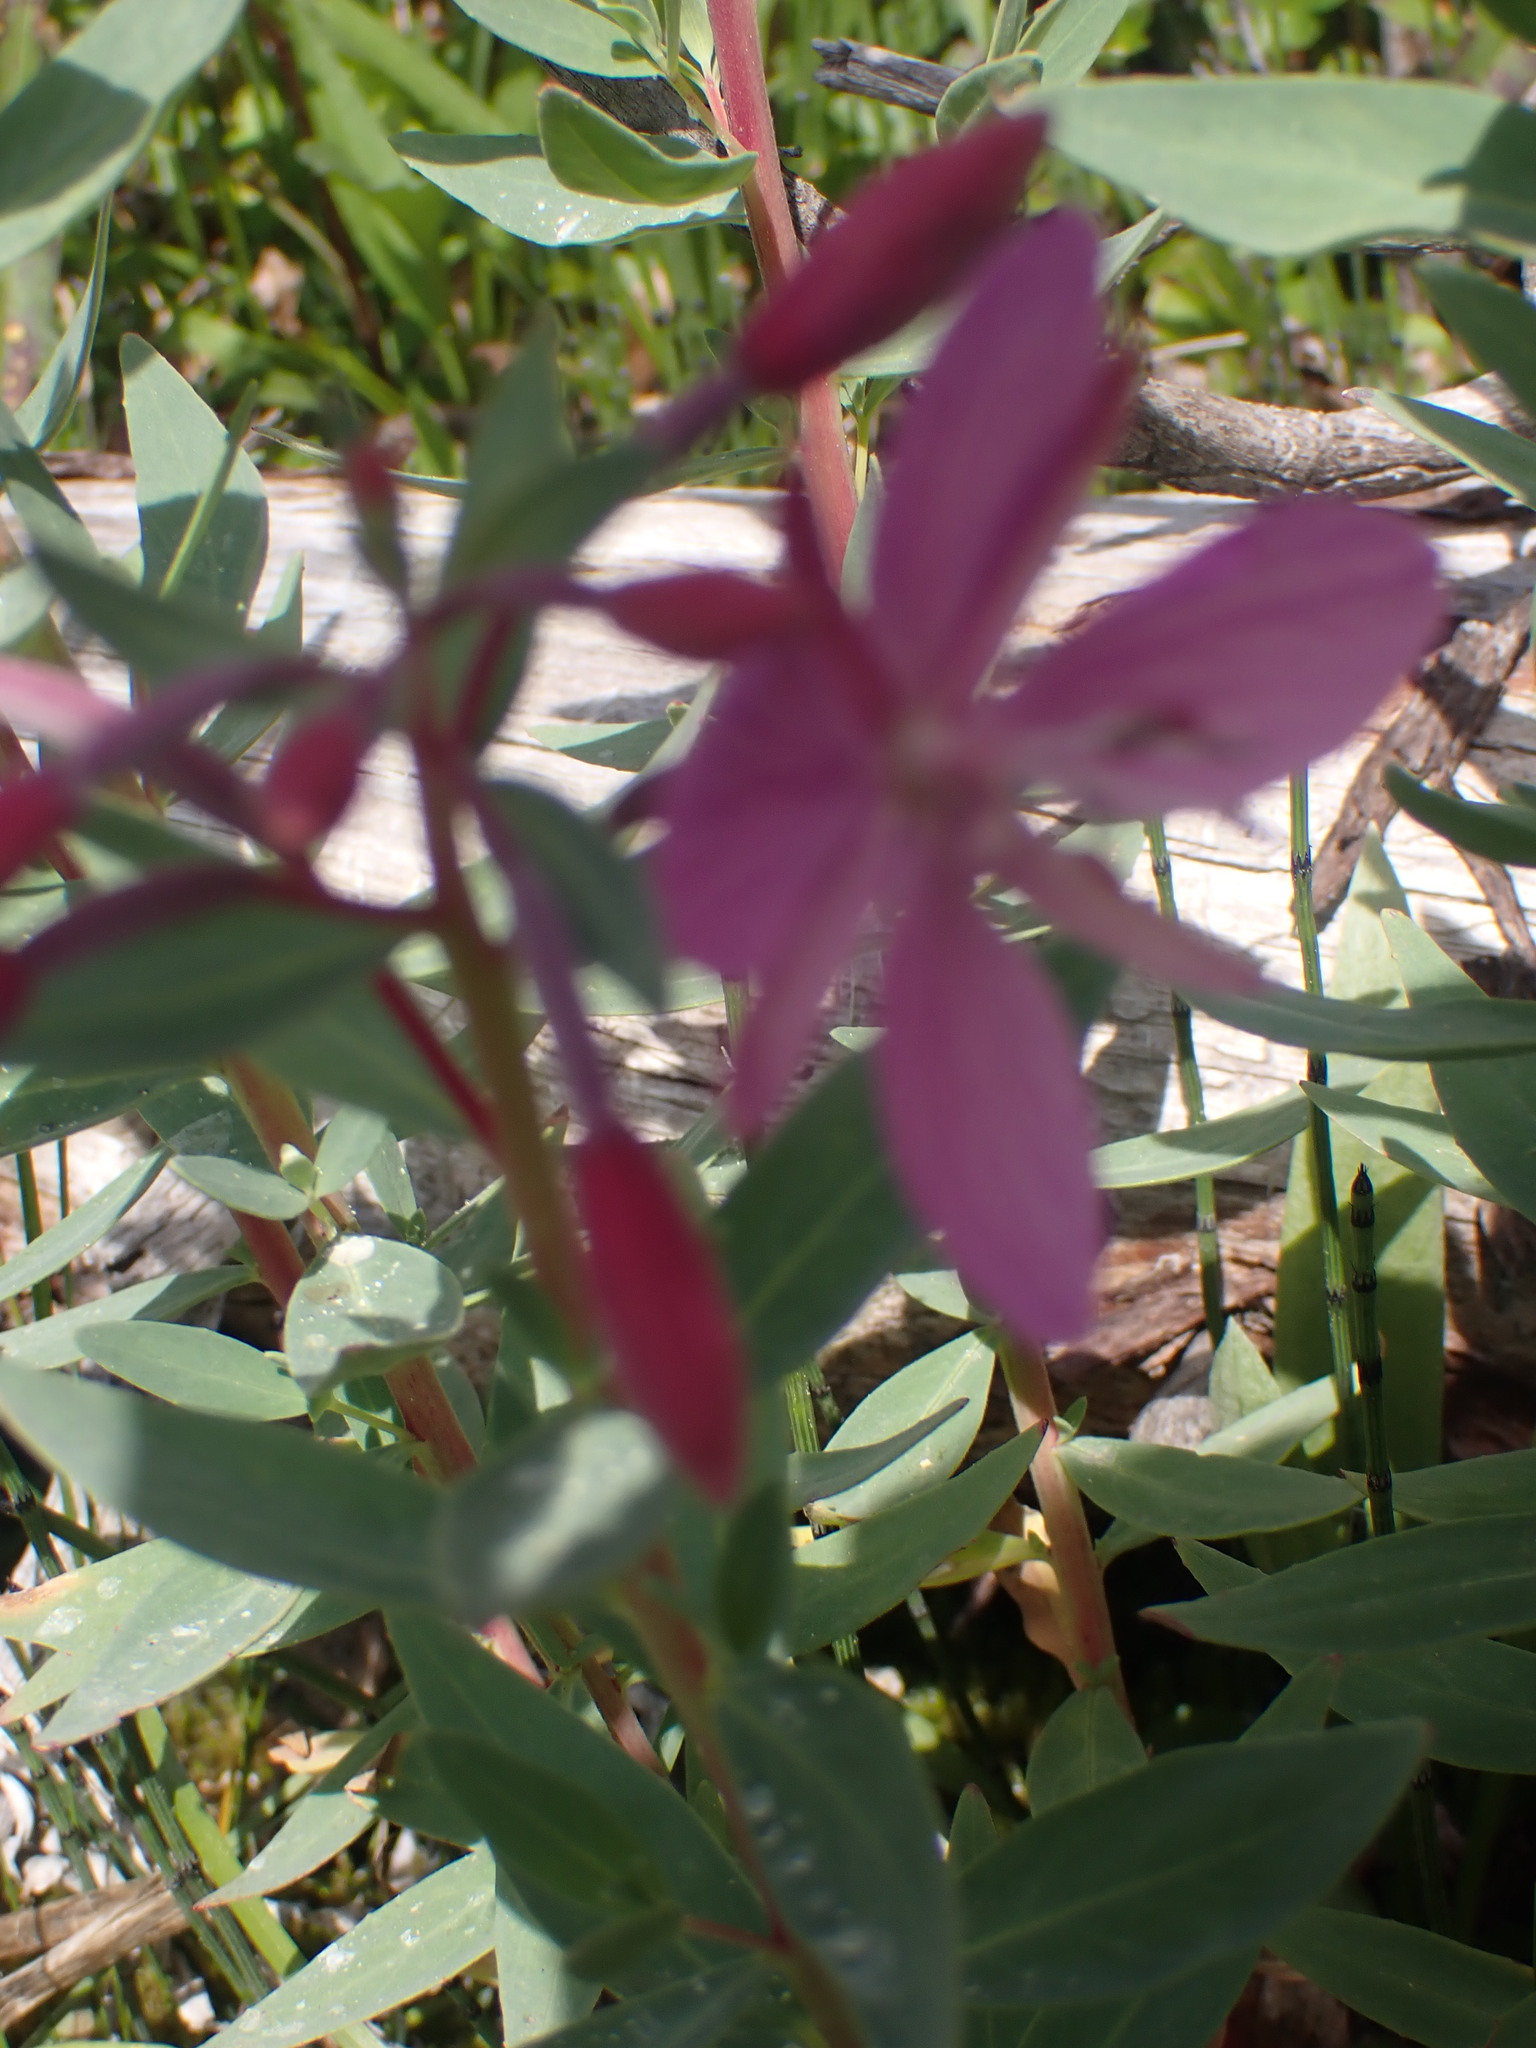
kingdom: Plantae
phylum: Tracheophyta
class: Magnoliopsida
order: Myrtales
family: Onagraceae
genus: Chamaenerion
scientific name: Chamaenerion latifolium
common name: Dwarf fireweed
